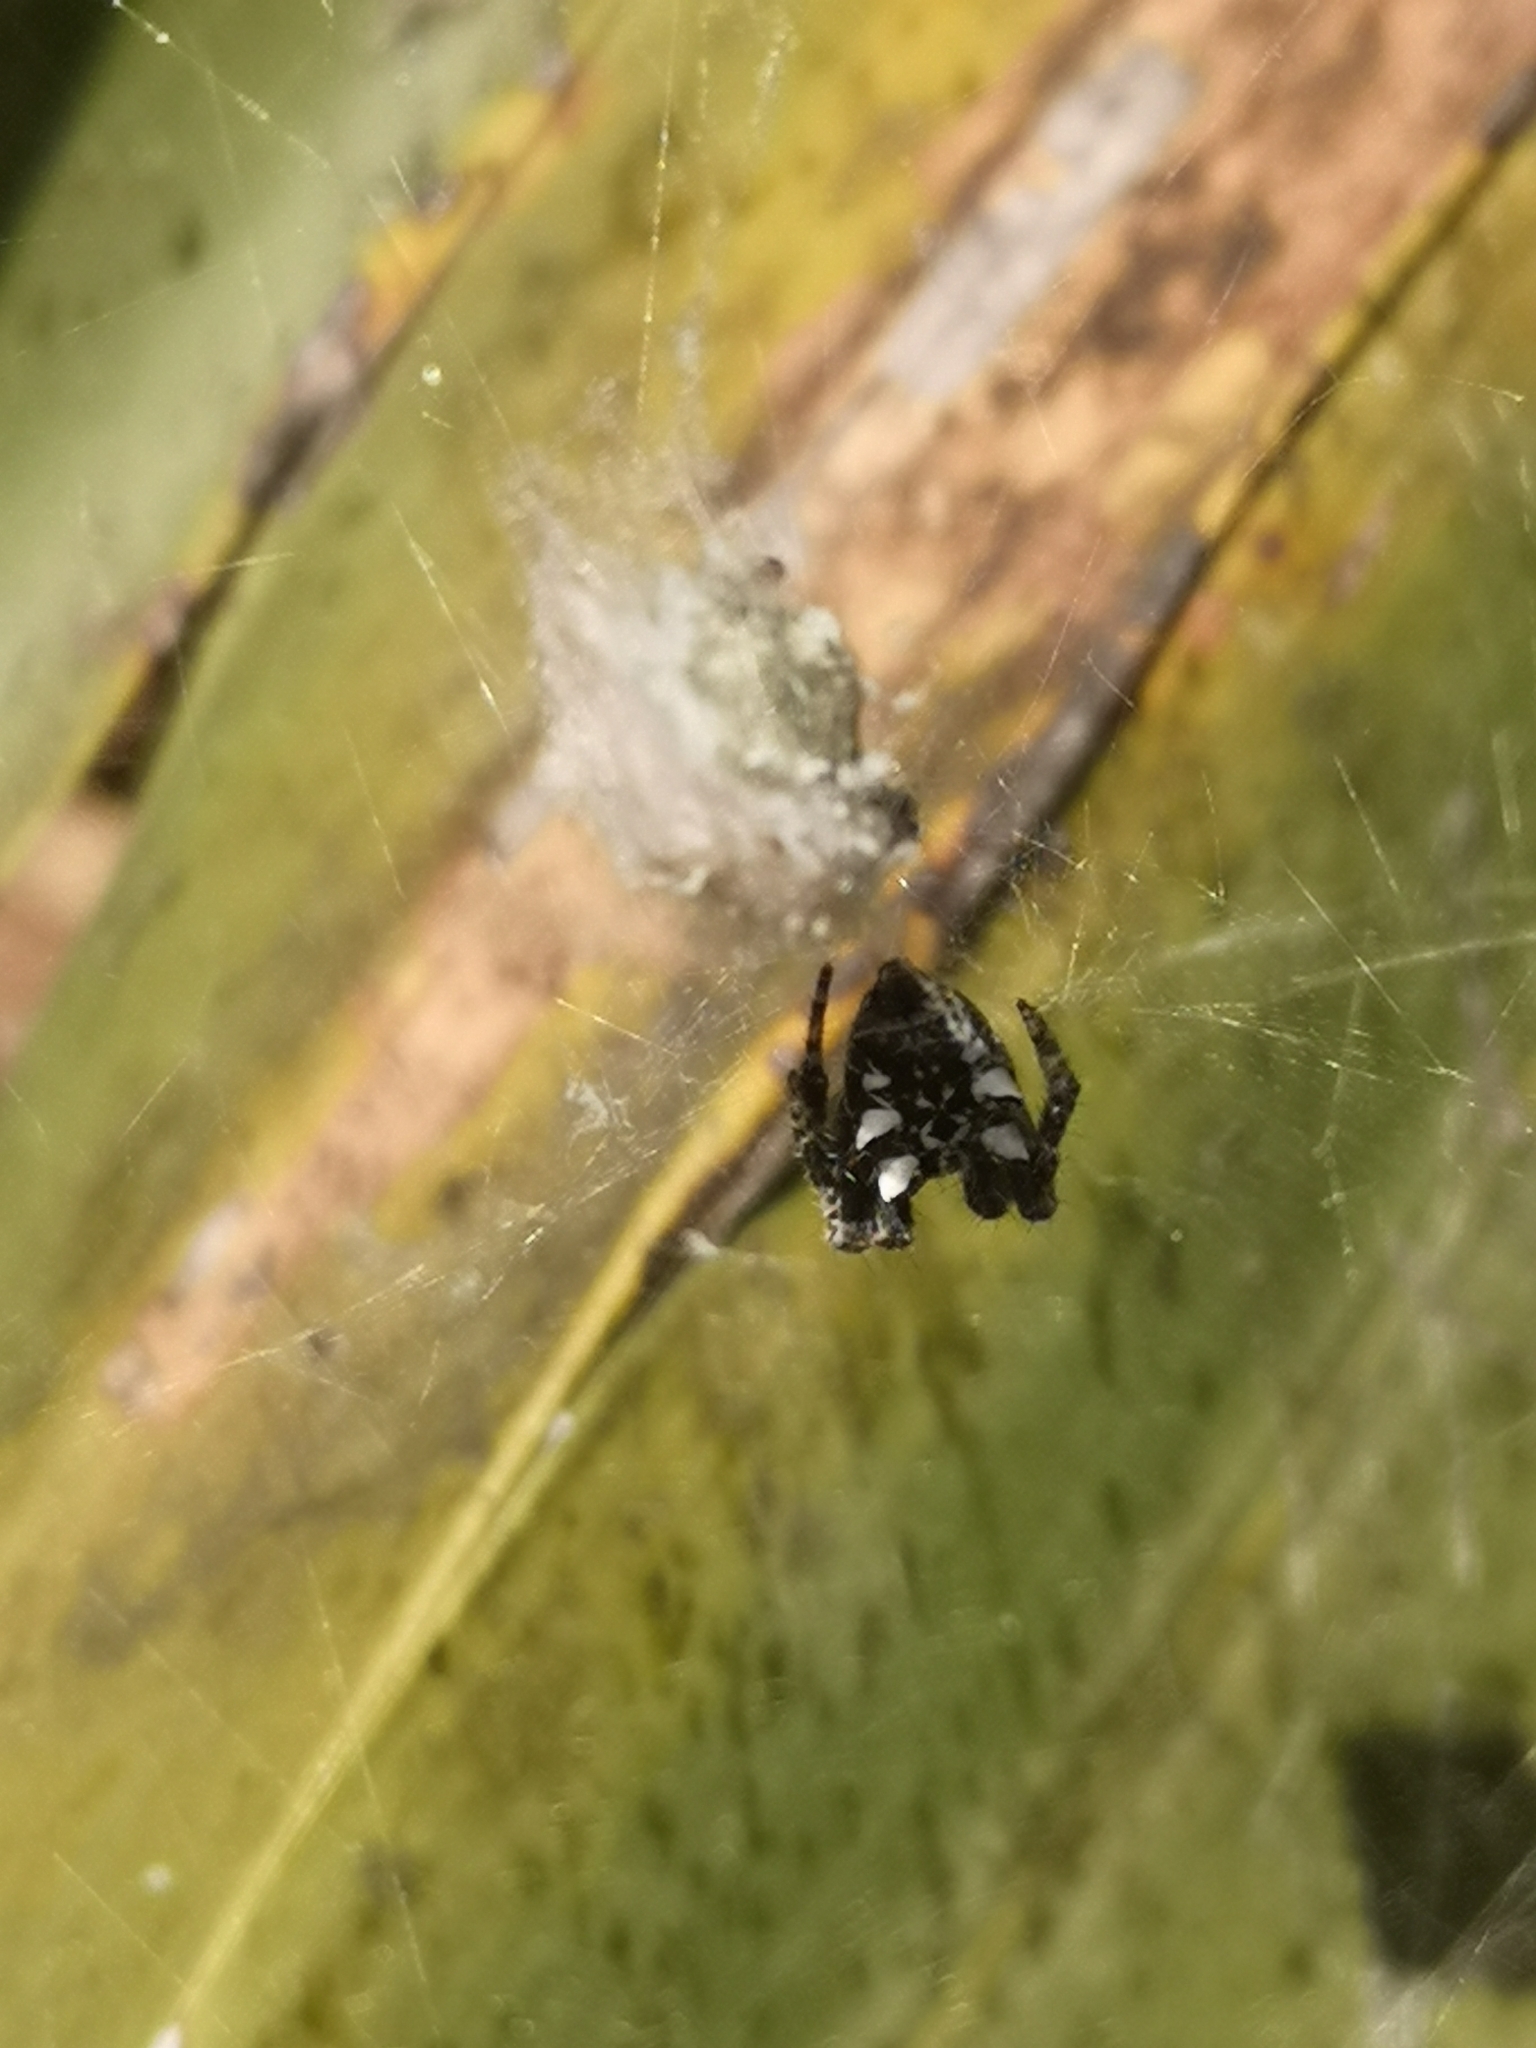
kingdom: Animalia
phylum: Arthropoda
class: Arachnida
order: Araneae
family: Araneidae
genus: Cyrtophora
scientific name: Cyrtophora citricola
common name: Orb weavers
